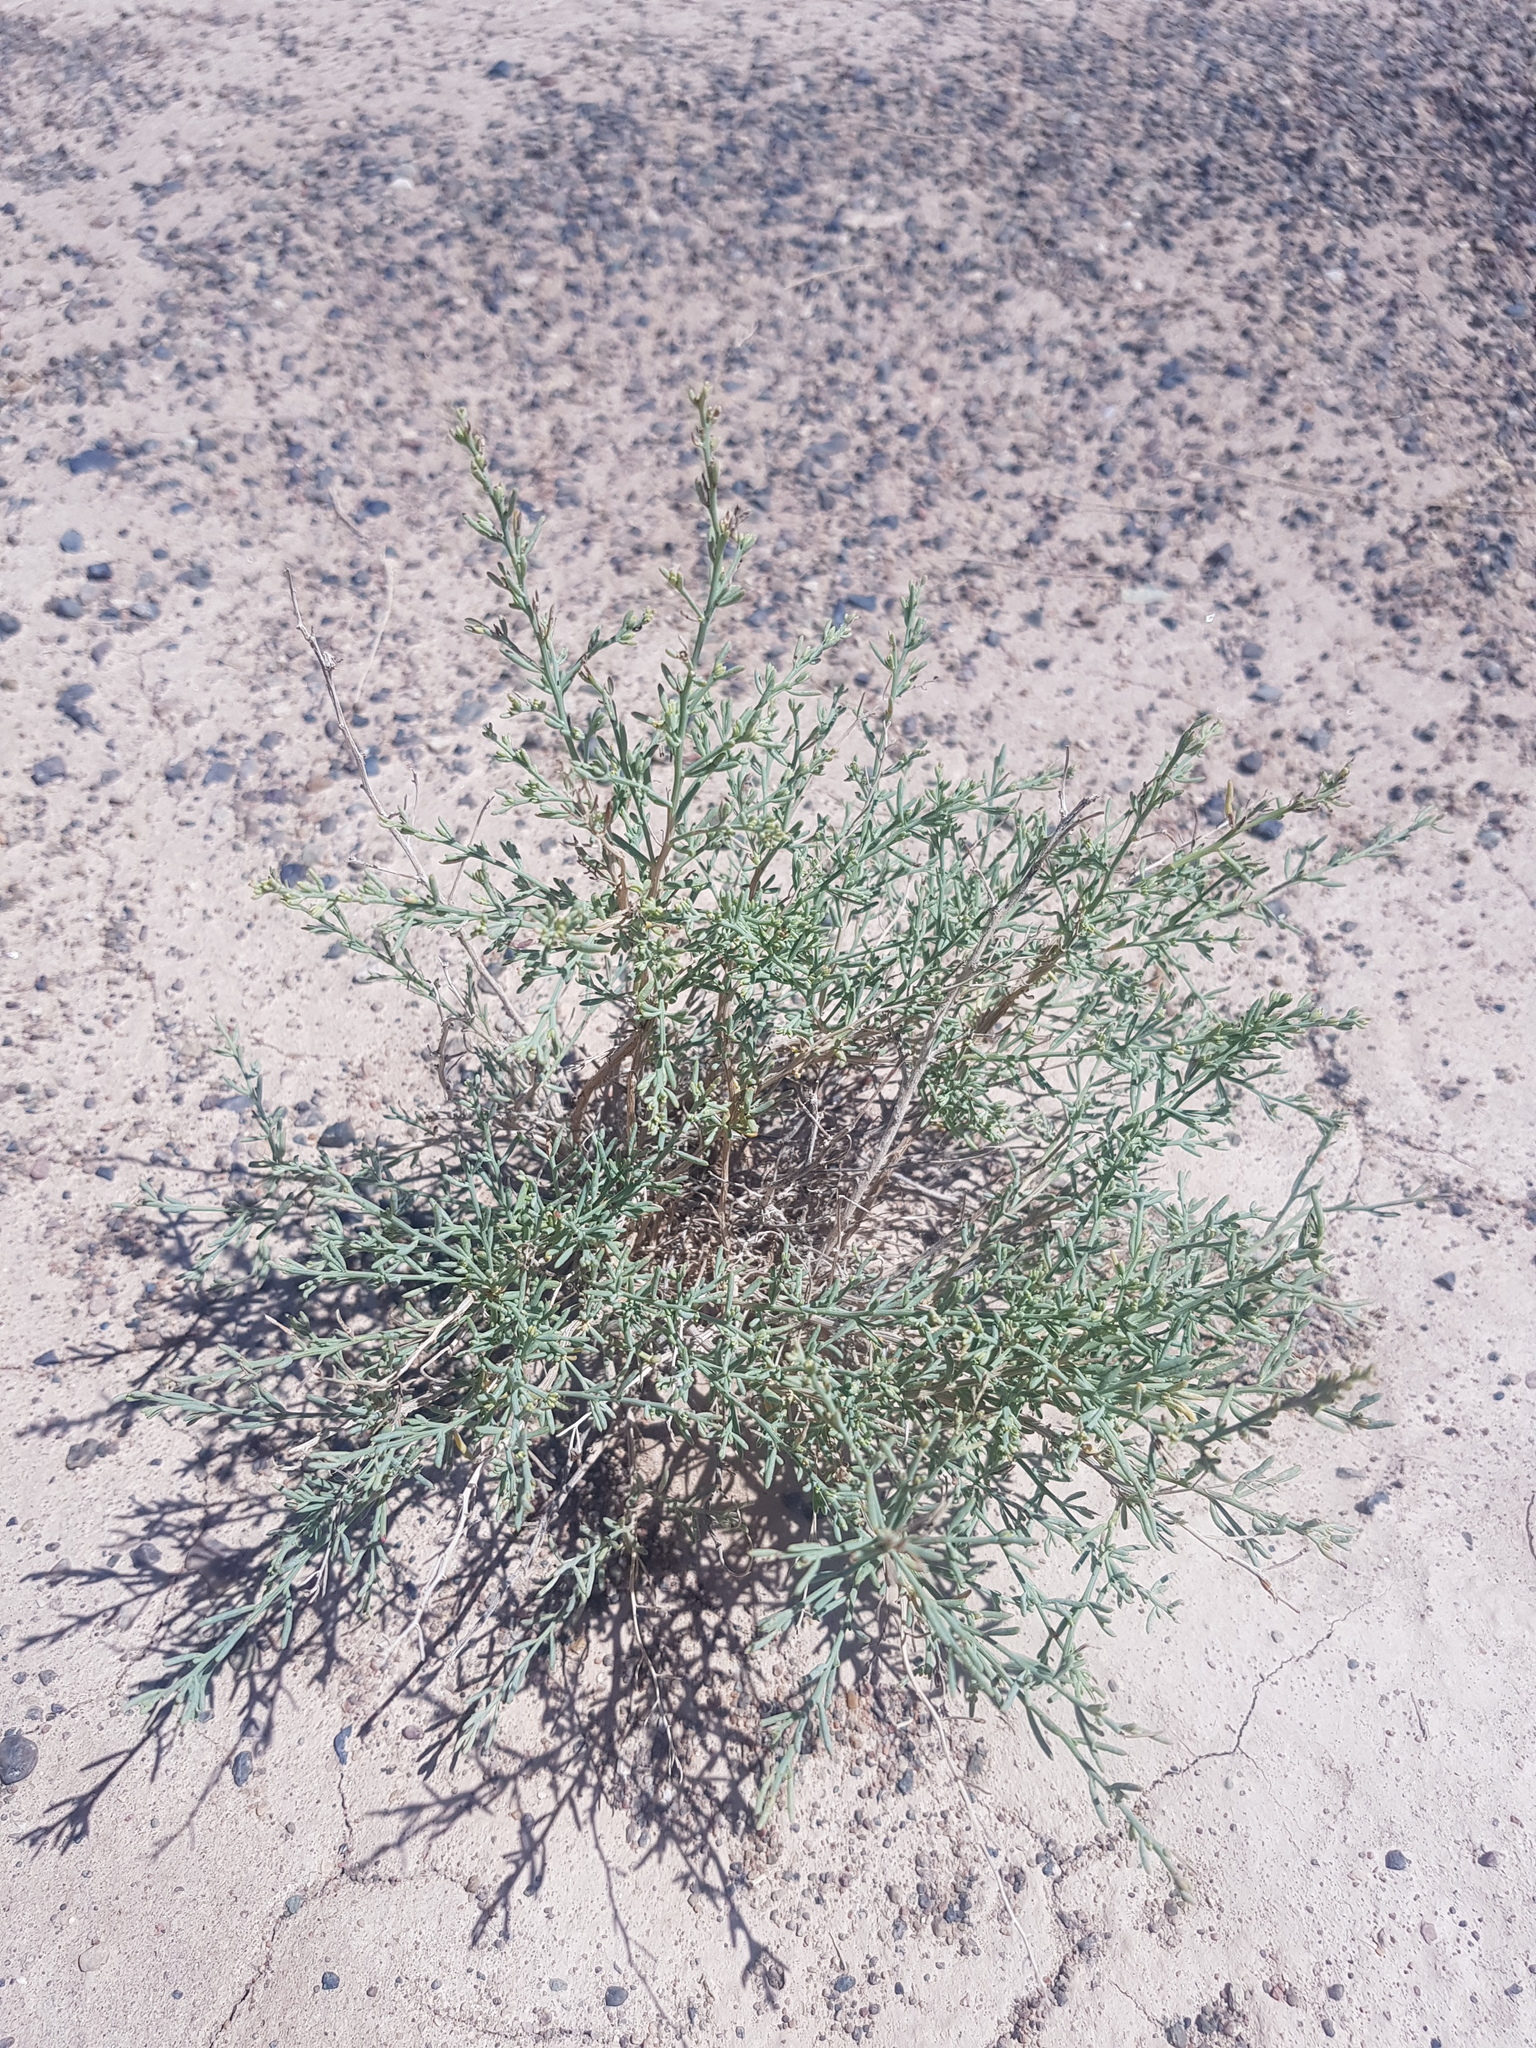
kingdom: Plantae
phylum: Tracheophyta
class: Magnoliopsida
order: Caryophyllales
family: Amaranthaceae
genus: Sympegma
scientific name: Sympegma regelii
